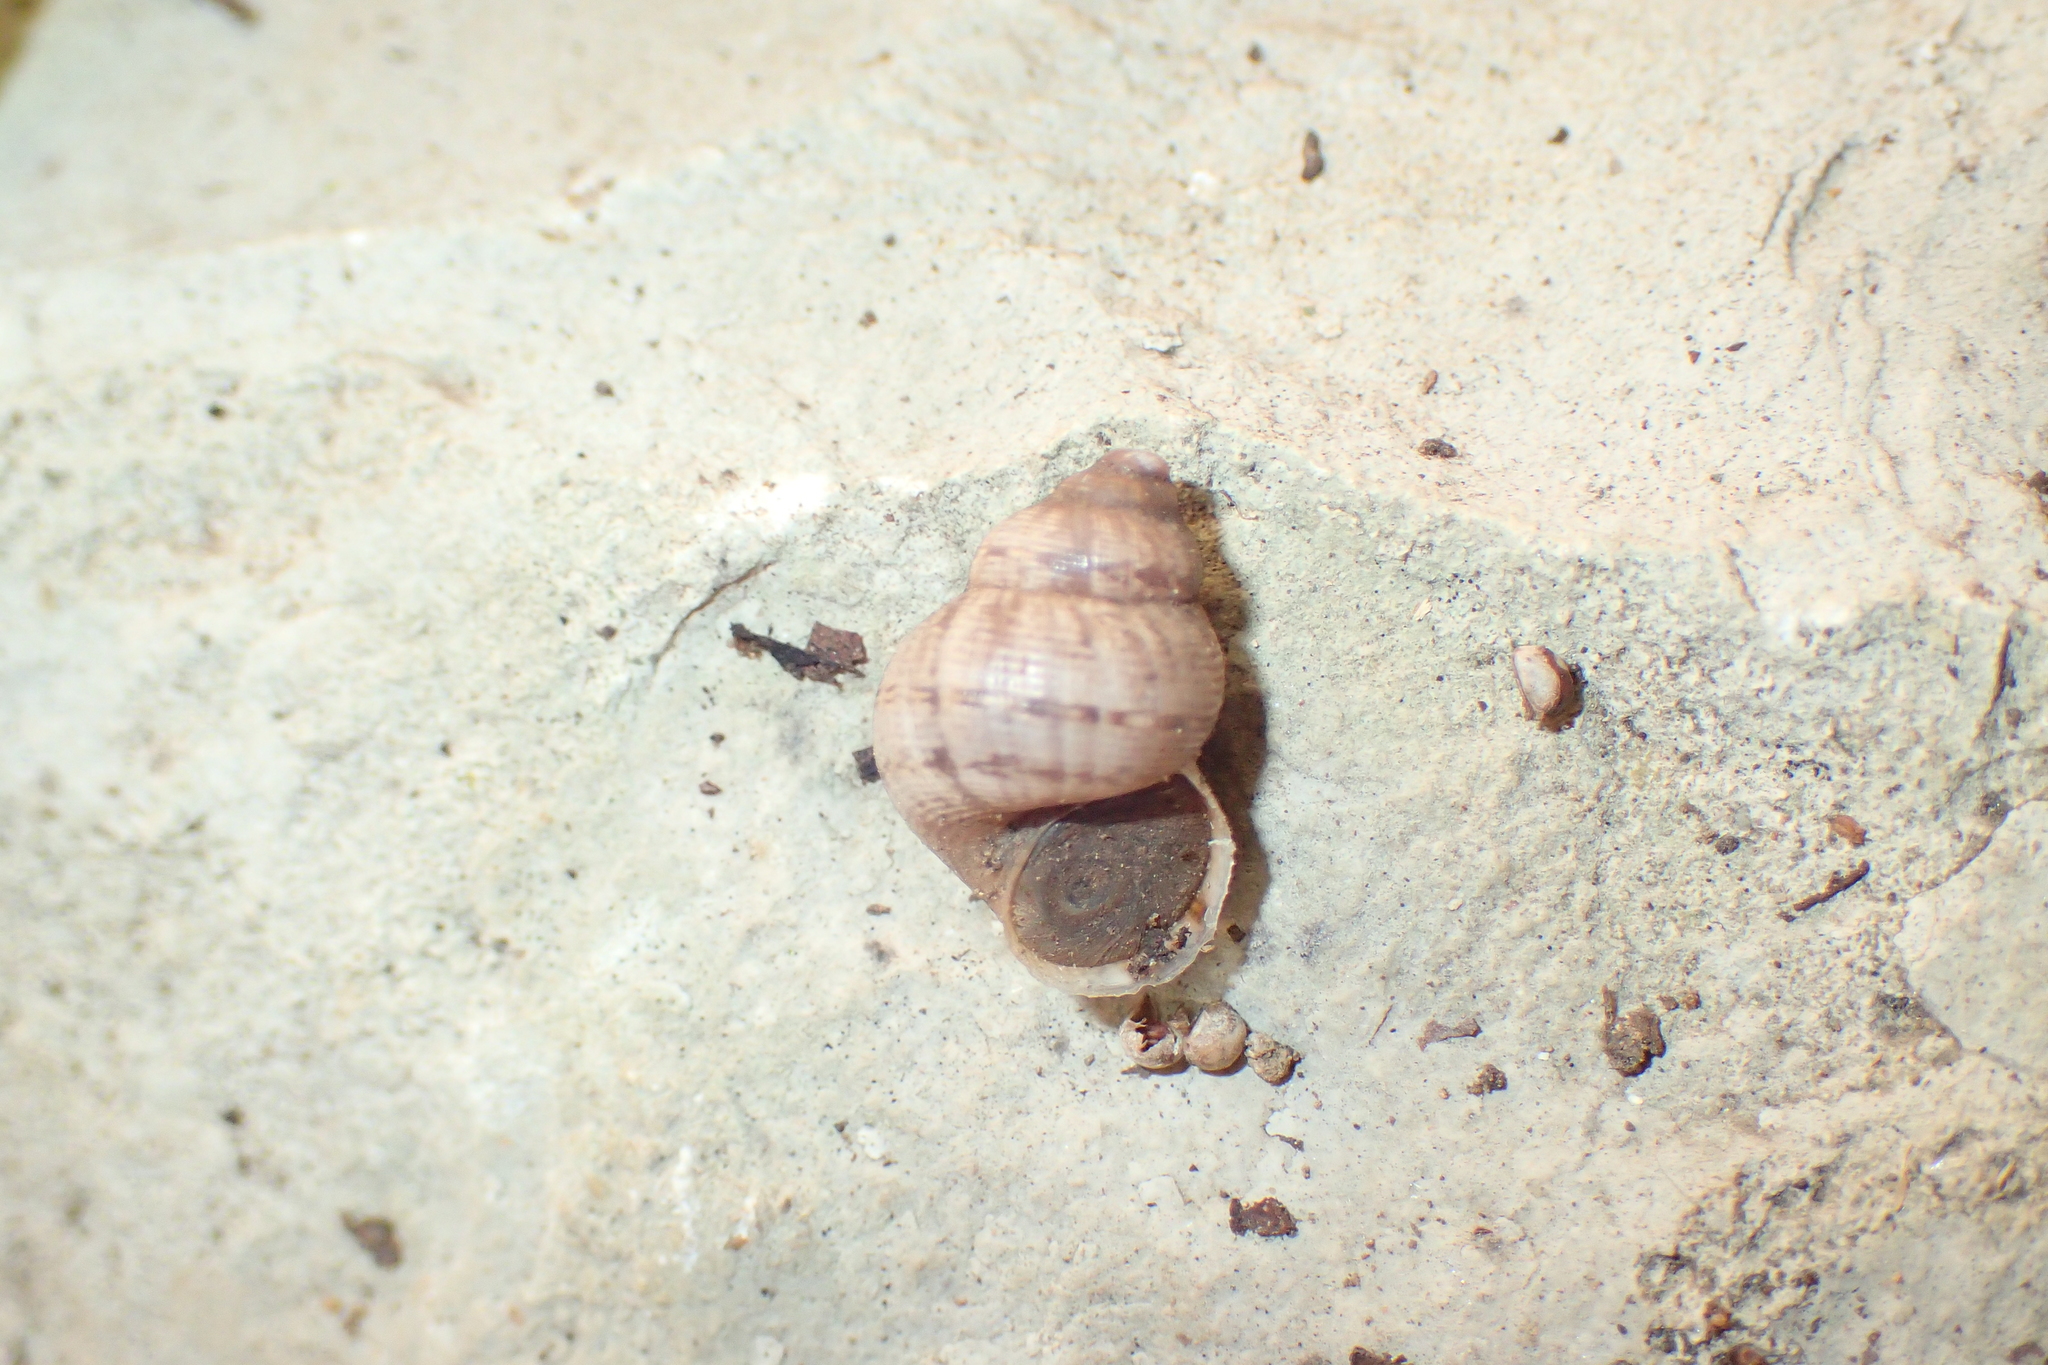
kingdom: Animalia
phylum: Mollusca
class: Gastropoda
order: Littorinimorpha
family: Pomatiidae
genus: Pomatias
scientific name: Pomatias elegans
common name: Red-mouthed snail
